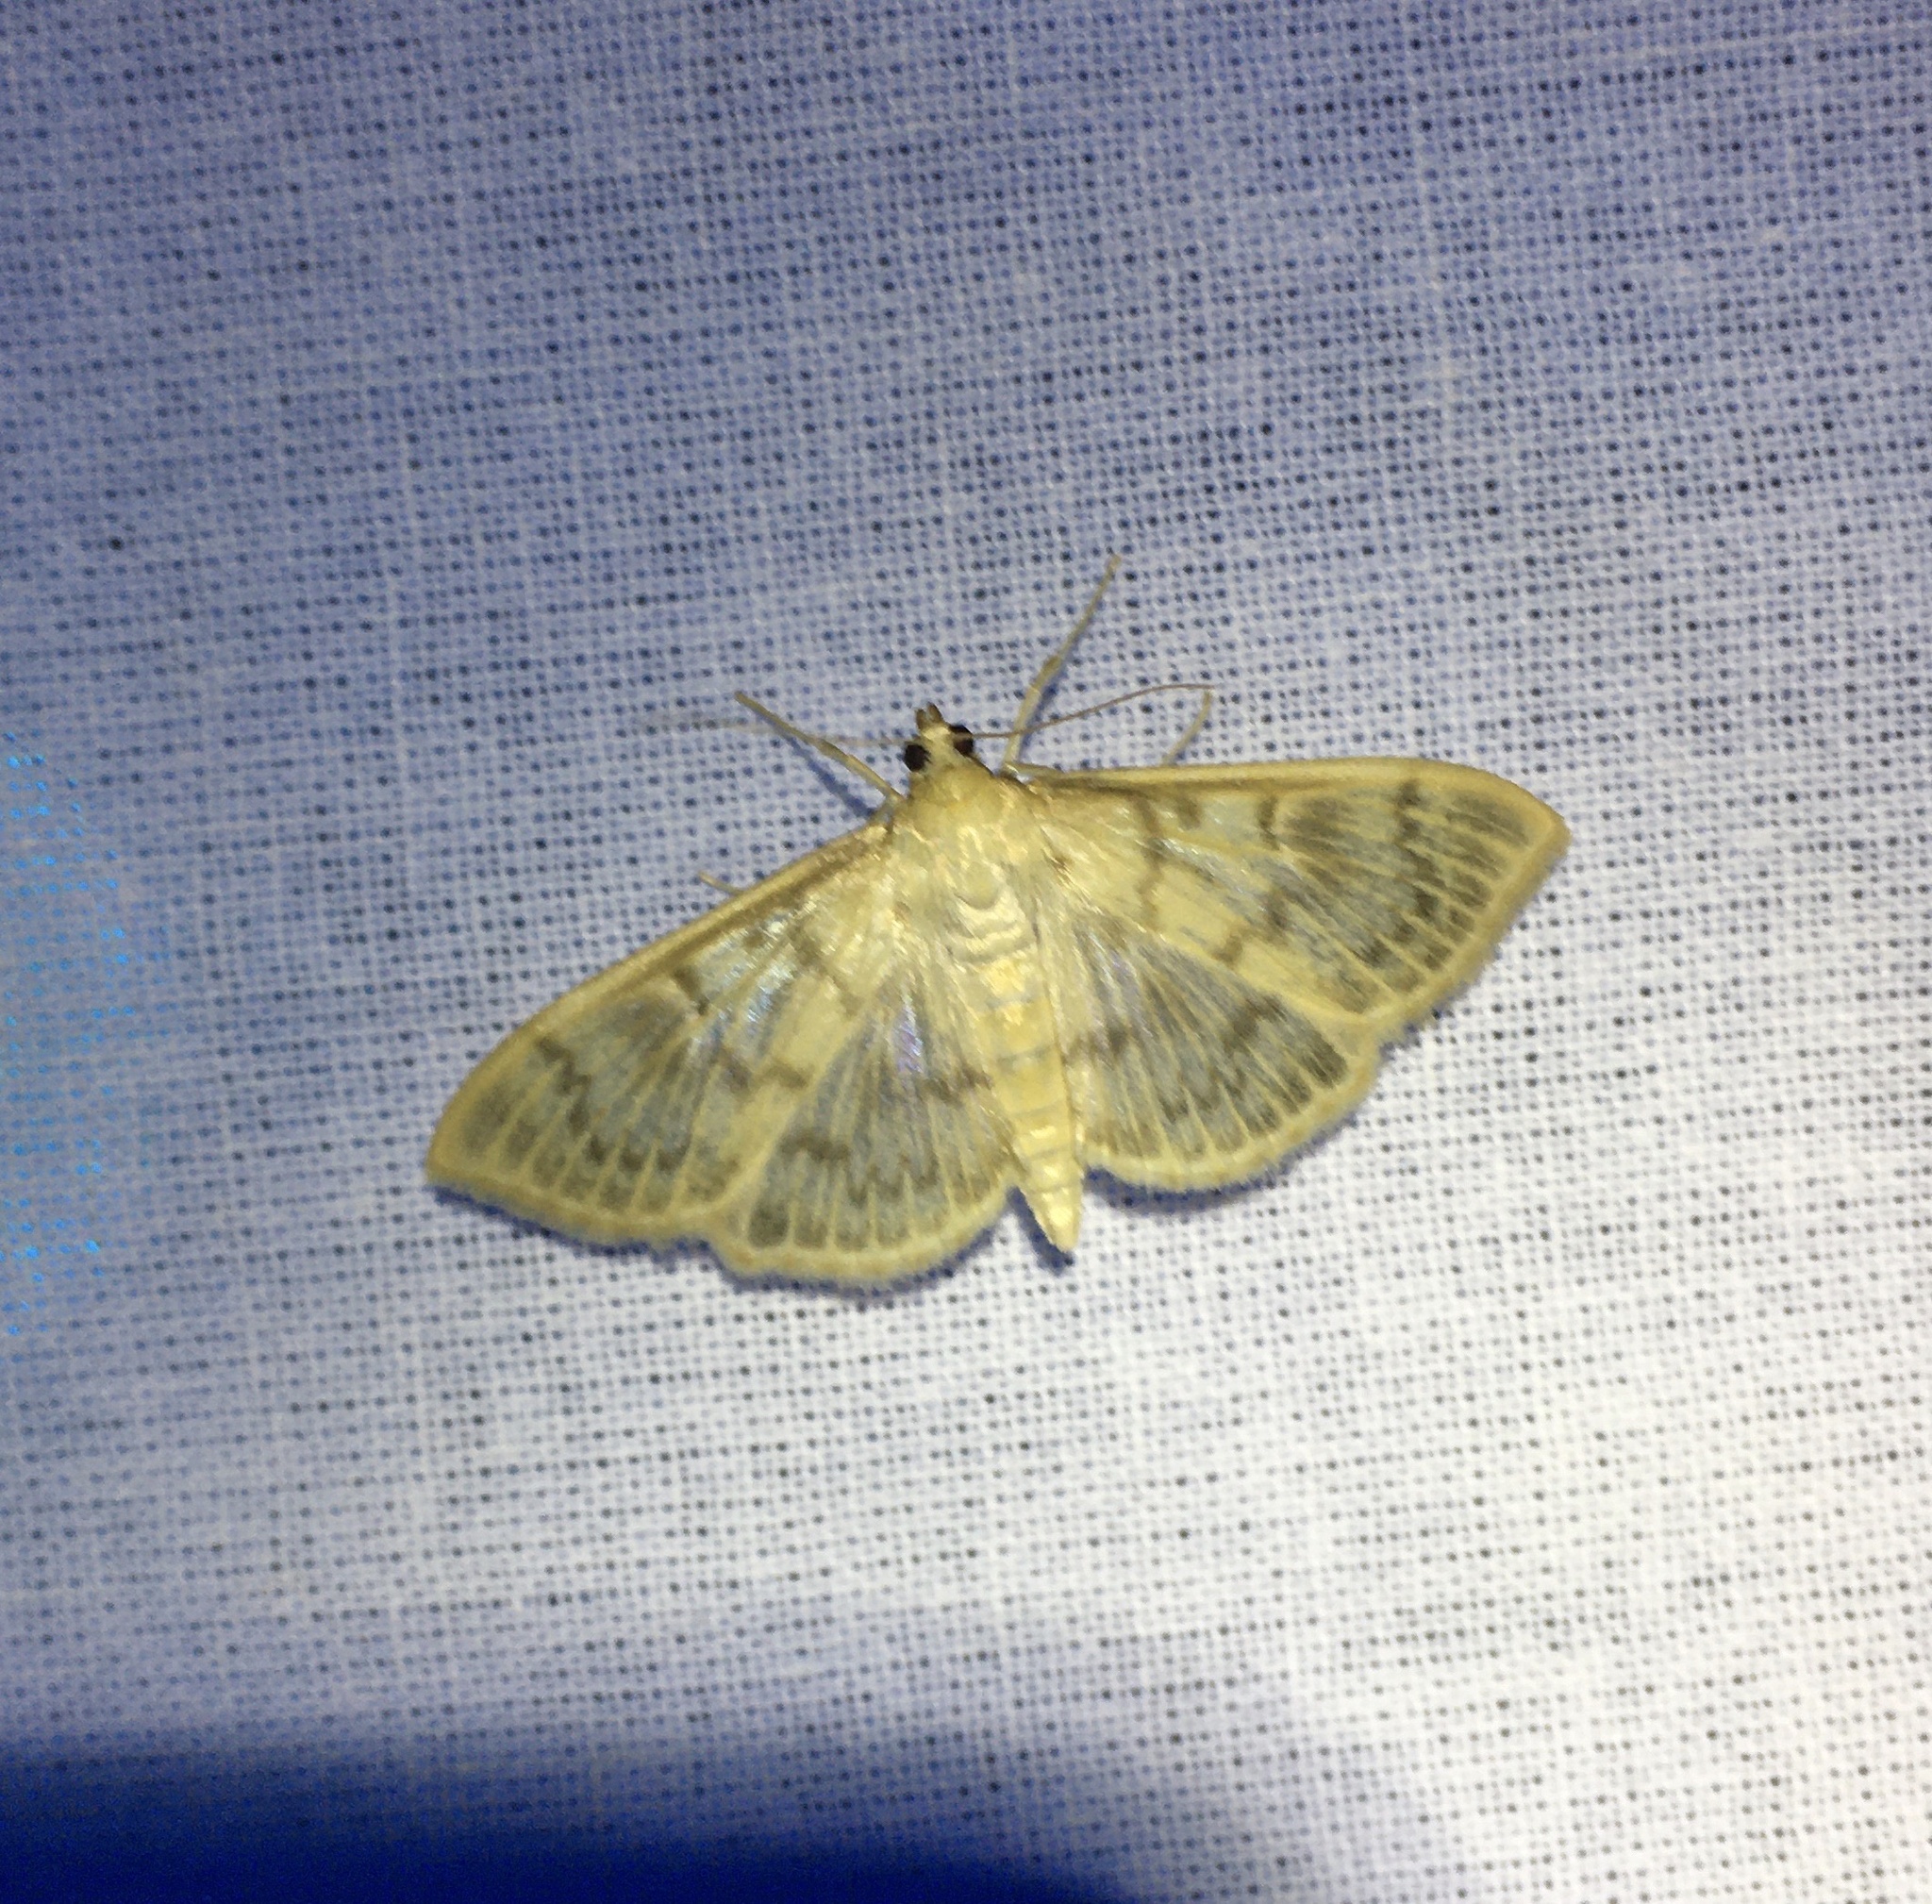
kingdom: Animalia
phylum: Arthropoda
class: Insecta
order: Lepidoptera
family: Crambidae
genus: Patania
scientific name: Patania ruralis
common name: Mother of pearl
